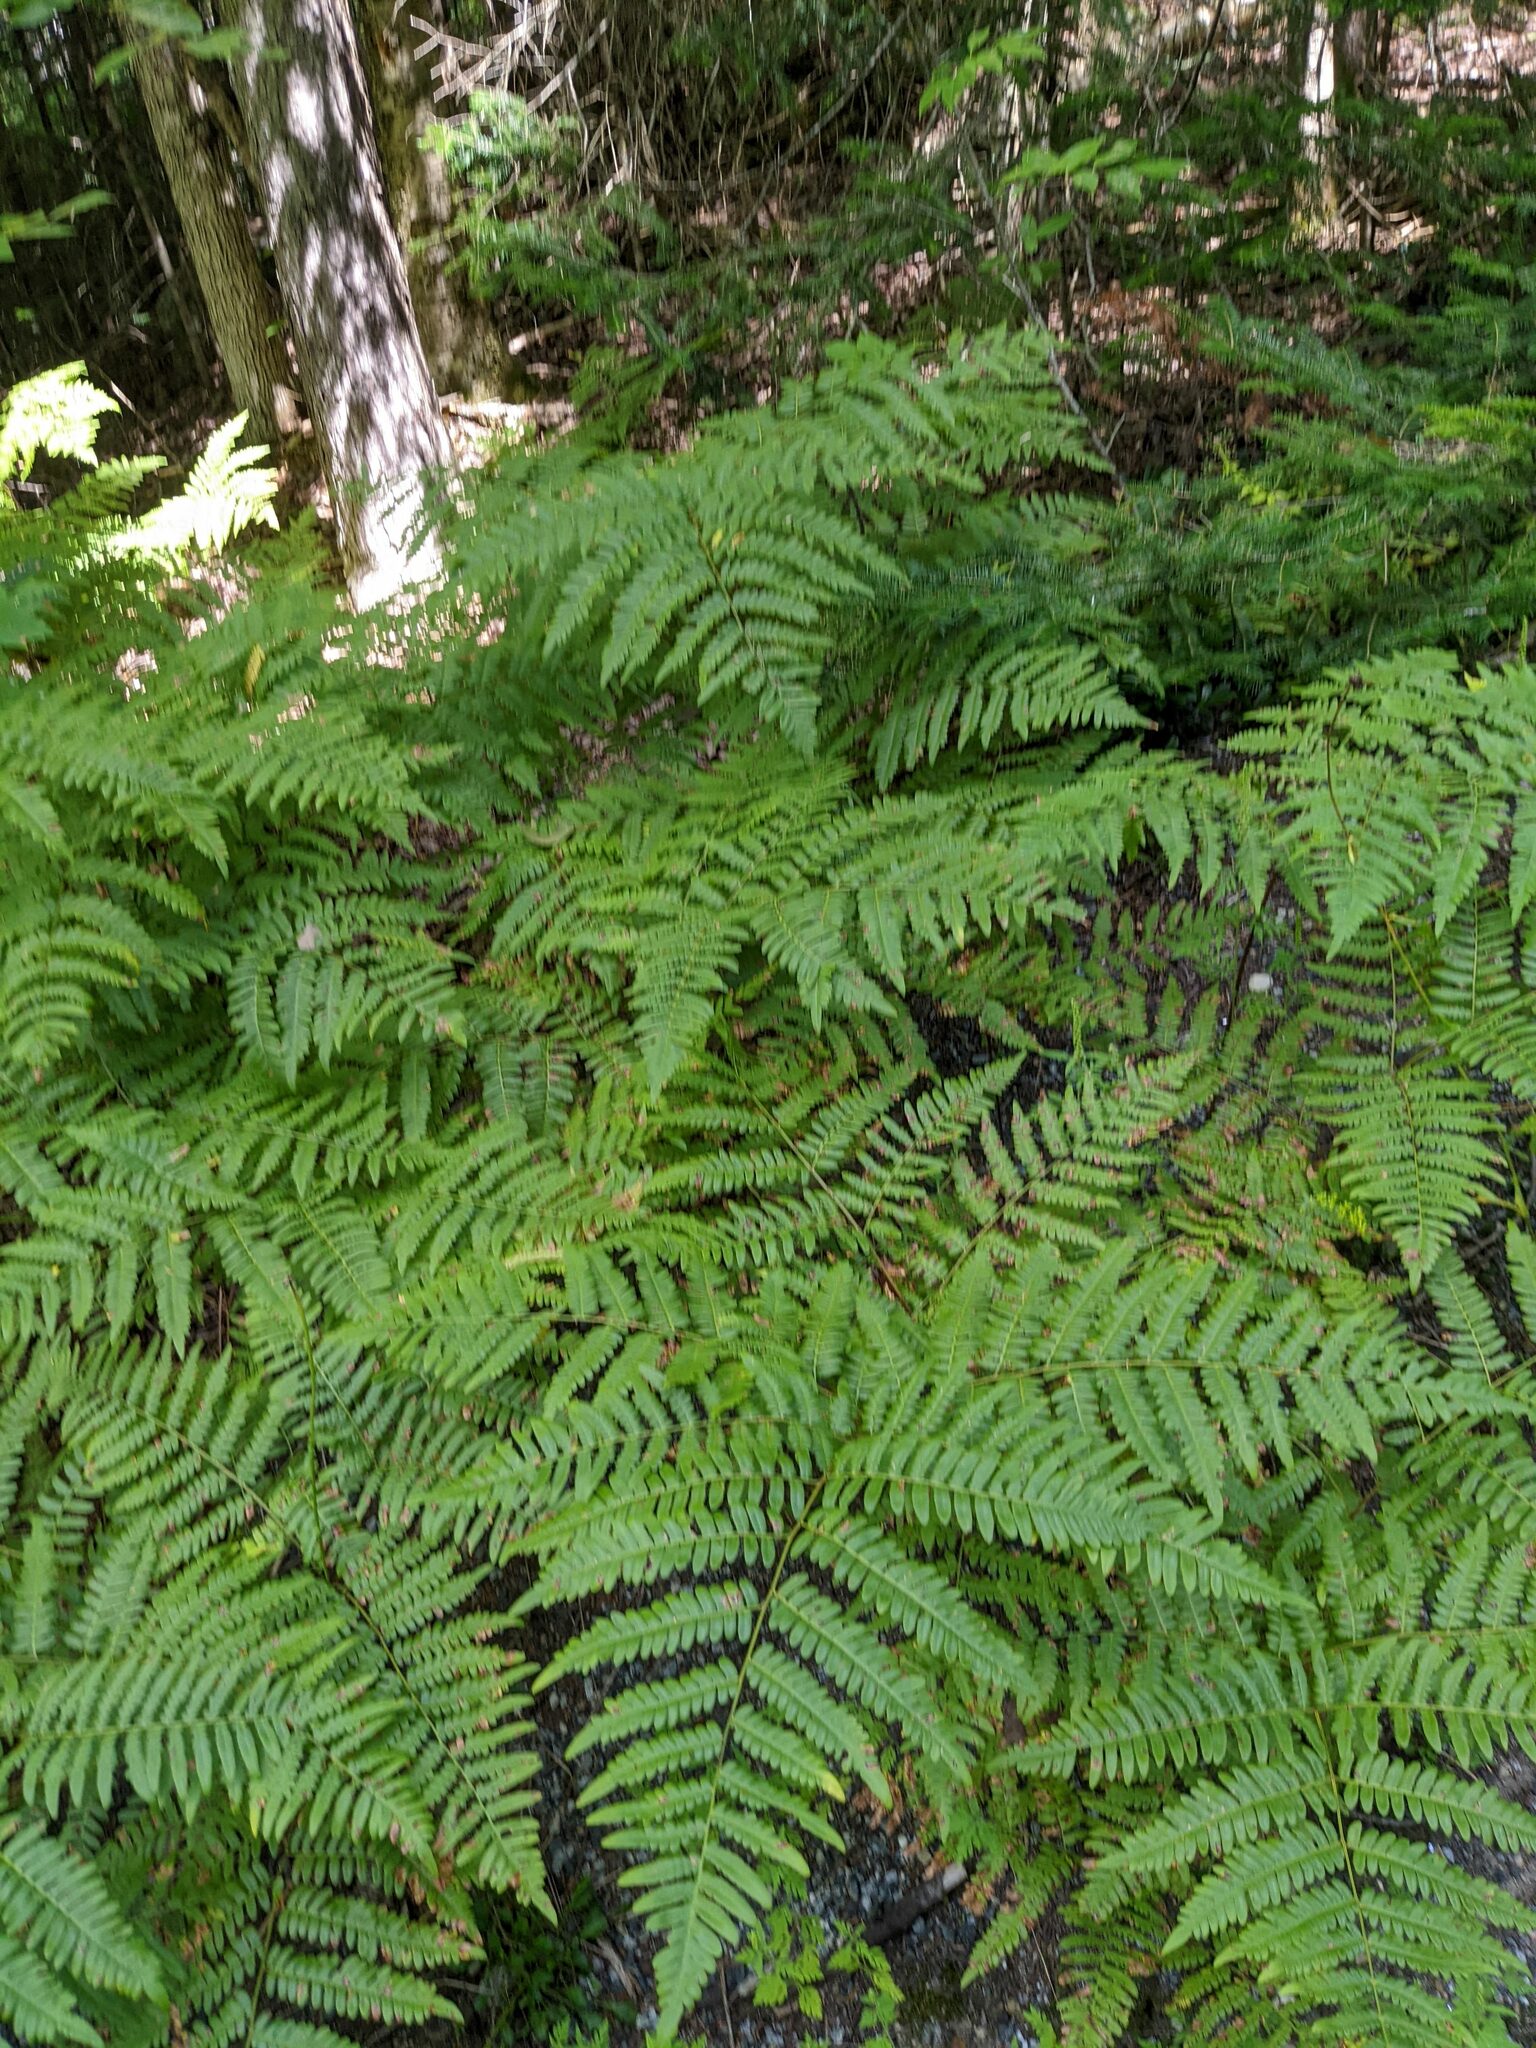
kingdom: Plantae
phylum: Tracheophyta
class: Polypodiopsida
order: Polypodiales
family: Dennstaedtiaceae
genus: Pteridium
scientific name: Pteridium aquilinum
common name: Bracken
